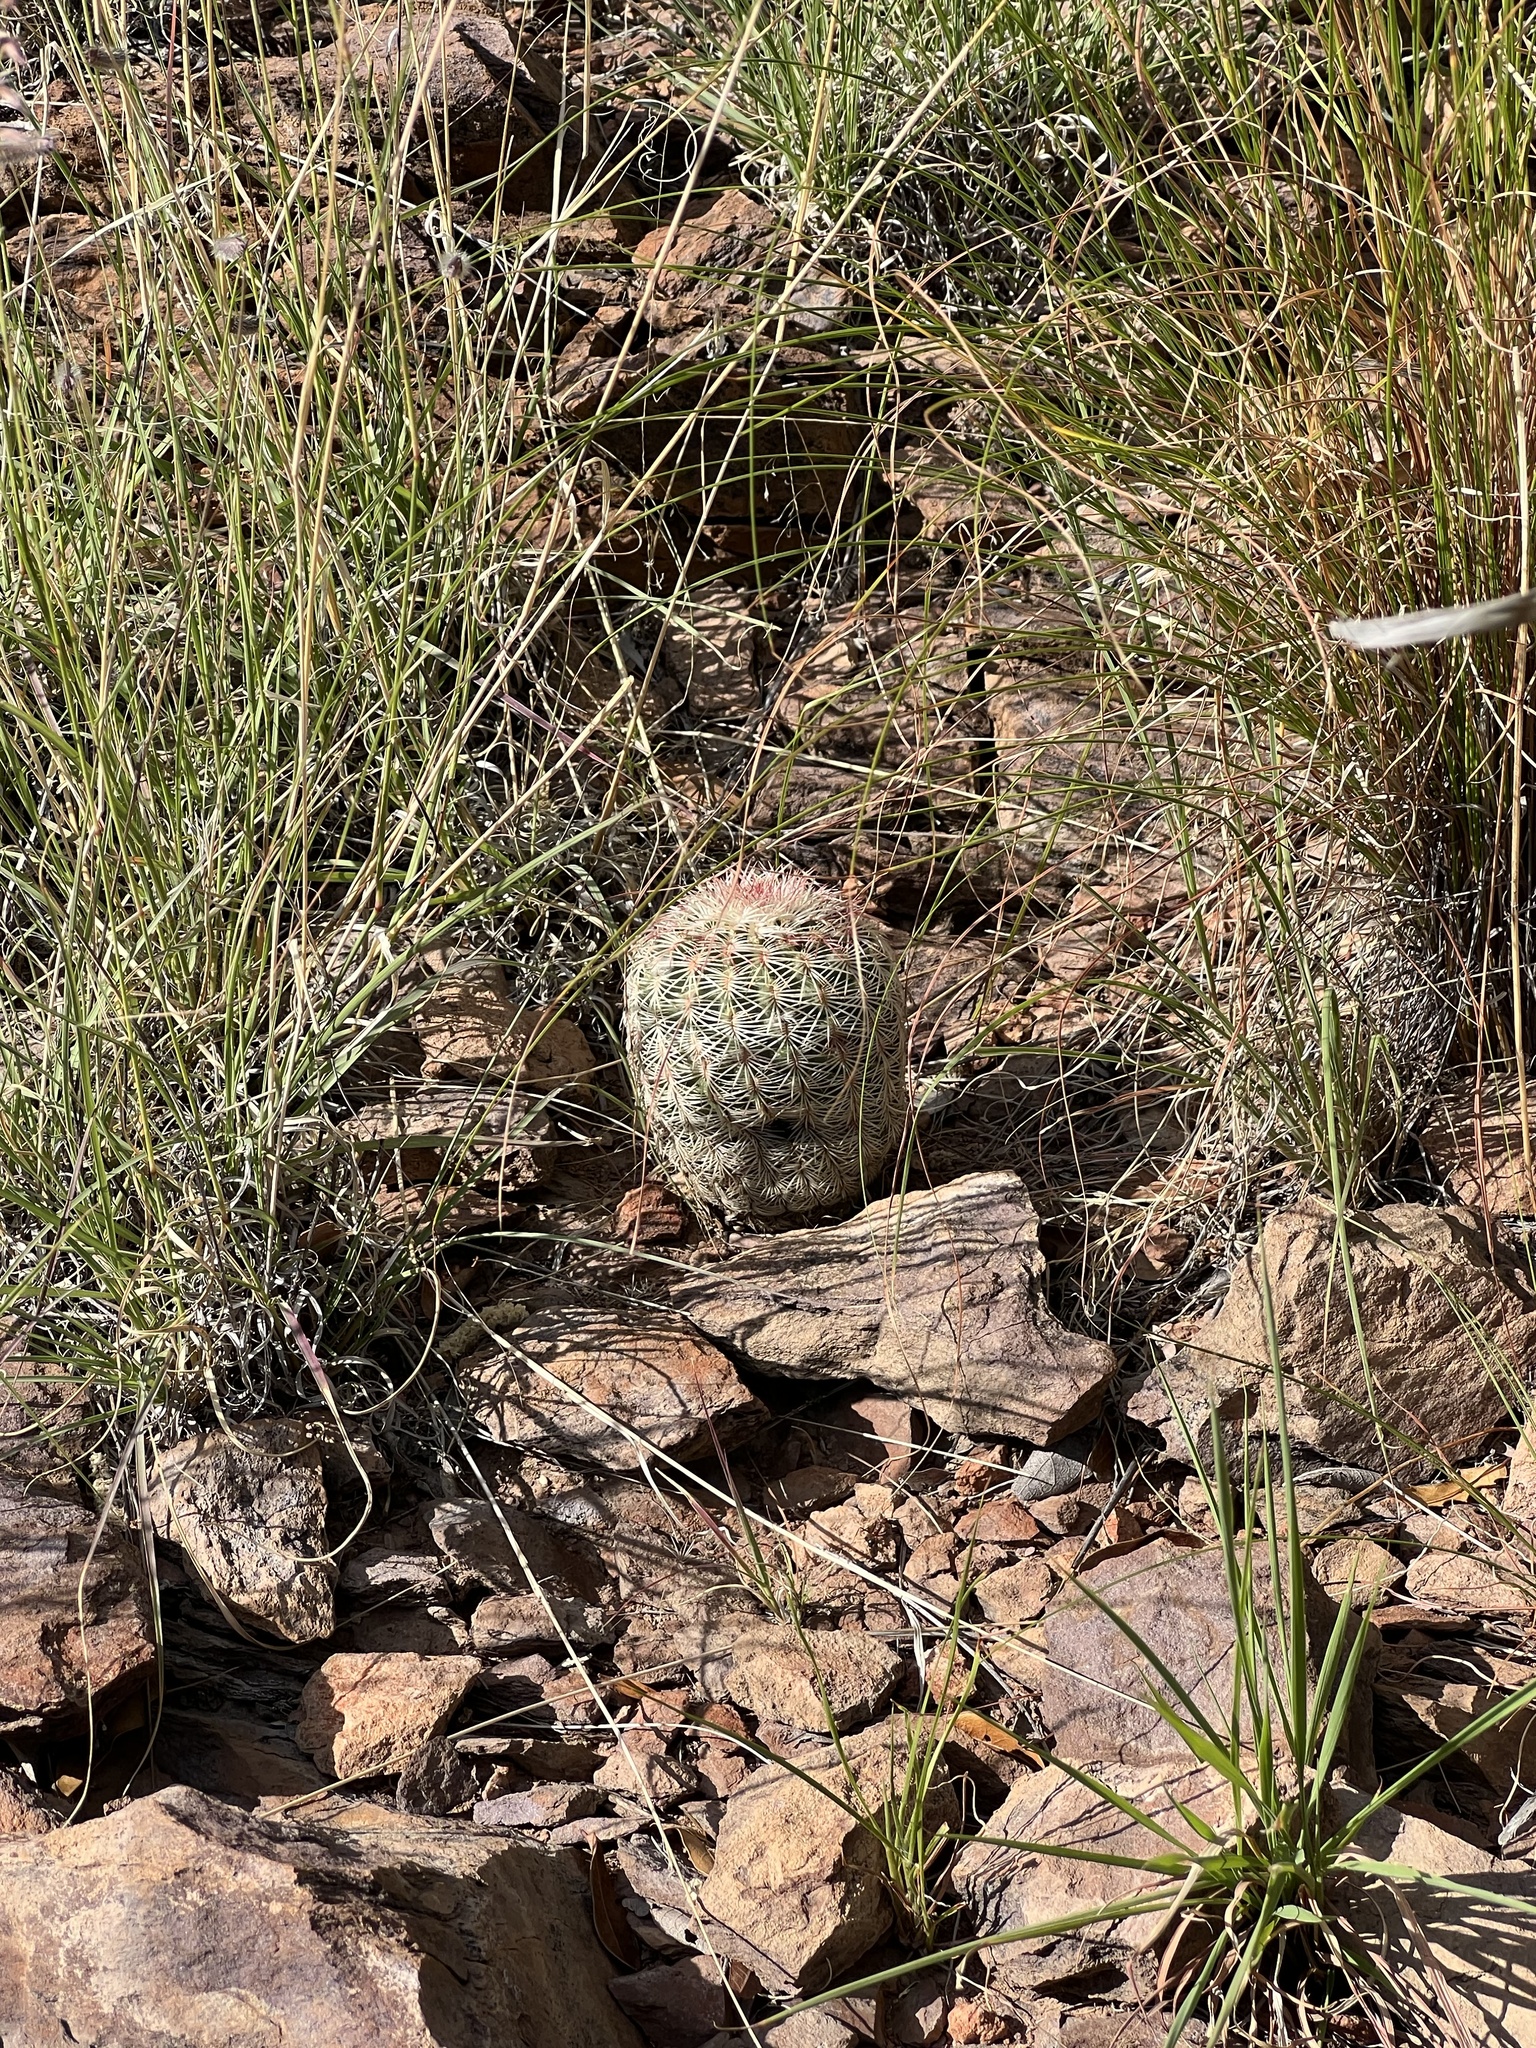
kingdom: Plantae
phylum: Tracheophyta
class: Magnoliopsida
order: Caryophyllales
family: Cactaceae
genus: Echinocereus
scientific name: Echinocereus rigidissimus
